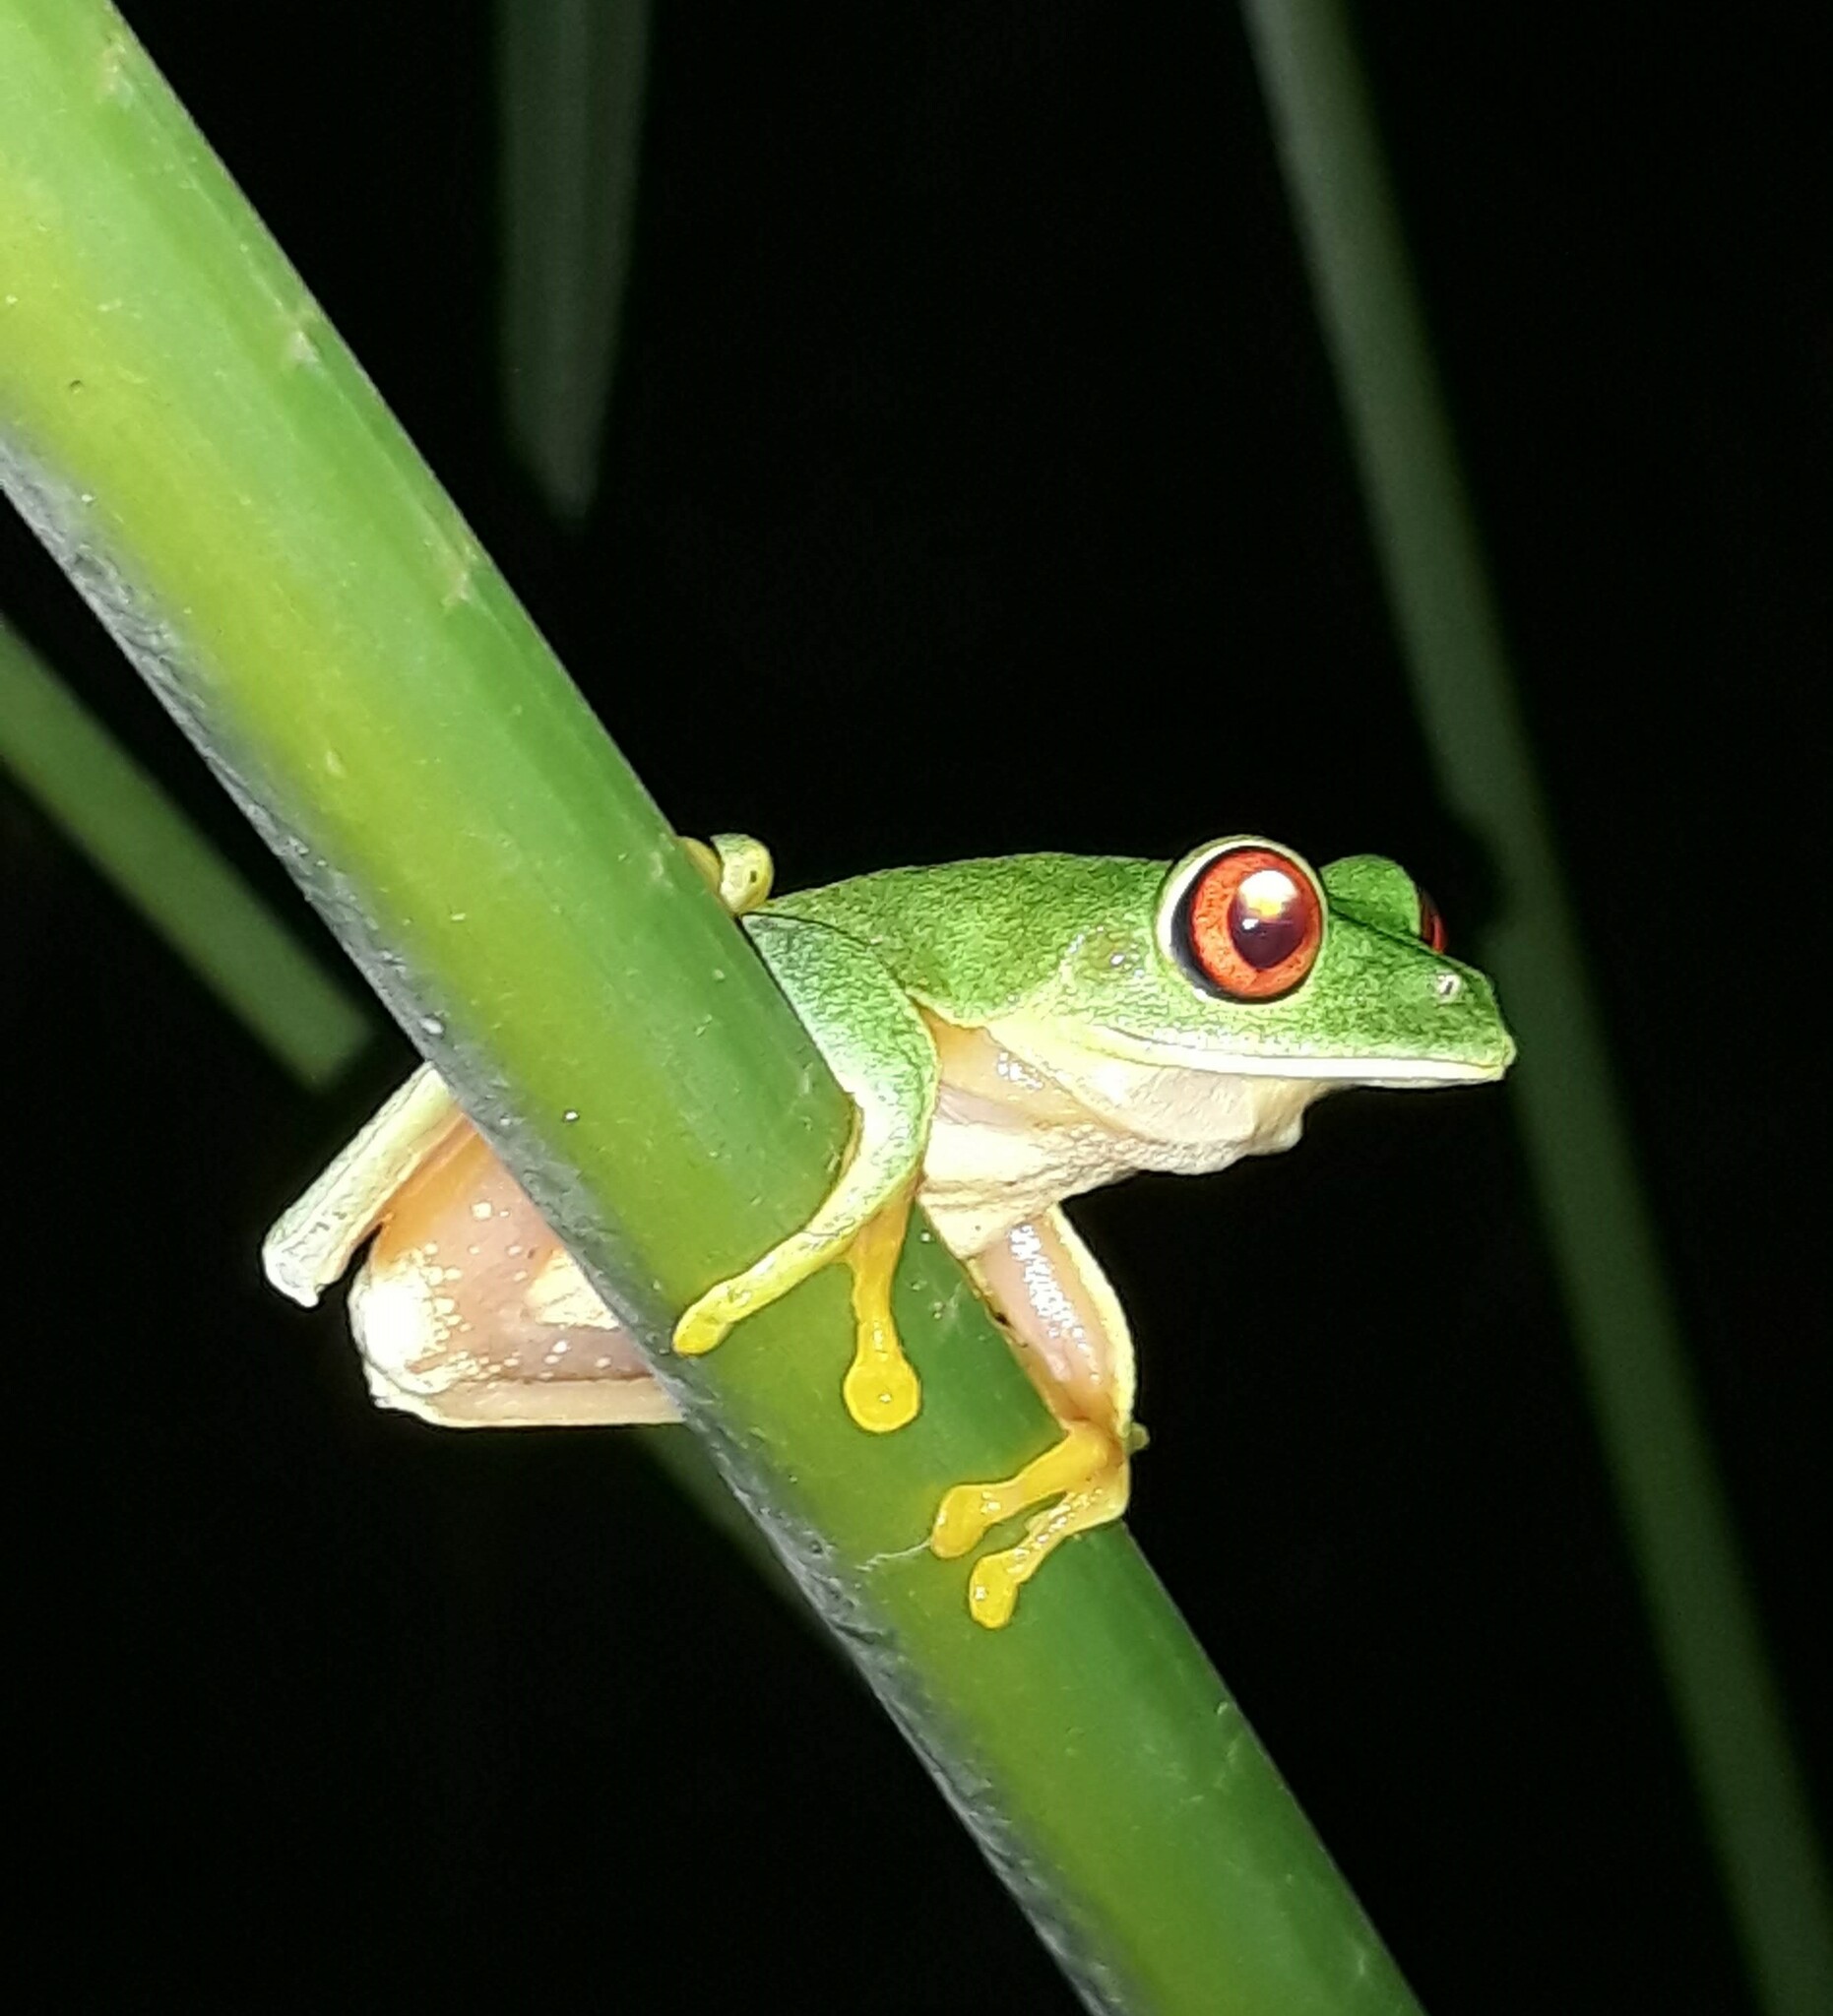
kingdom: Animalia
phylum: Chordata
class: Amphibia
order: Anura
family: Phyllomedusidae
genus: Agalychnis
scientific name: Agalychnis
